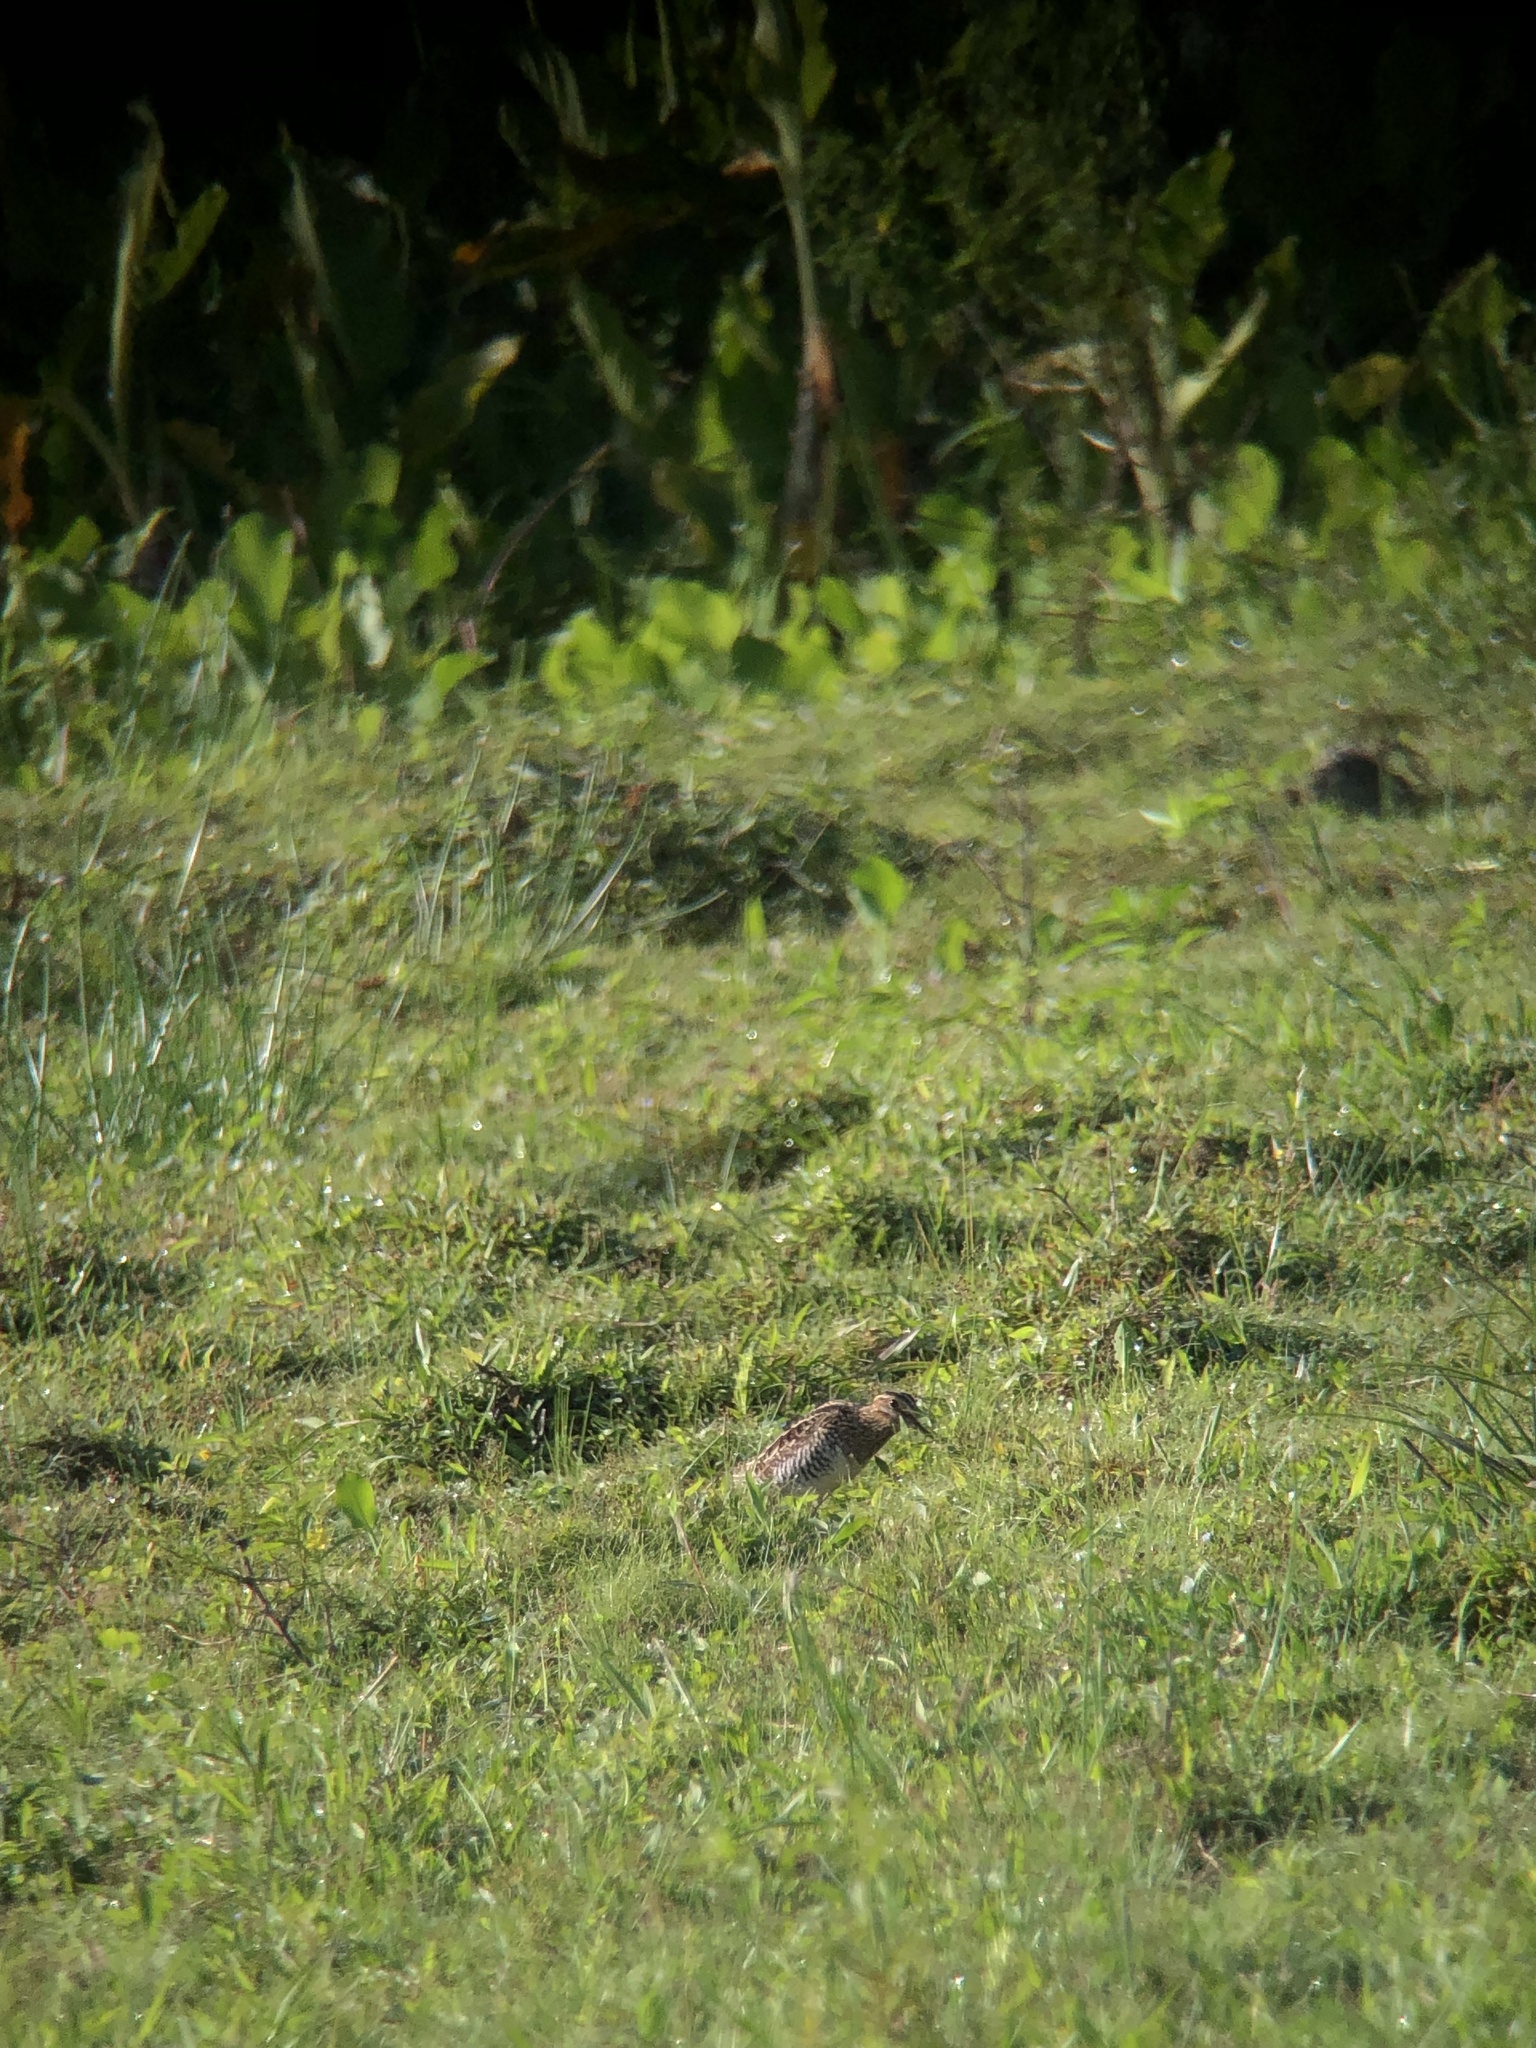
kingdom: Animalia
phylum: Chordata
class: Aves
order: Charadriiformes
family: Scolopacidae
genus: Gallinago
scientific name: Gallinago delicata
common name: Wilson's snipe
